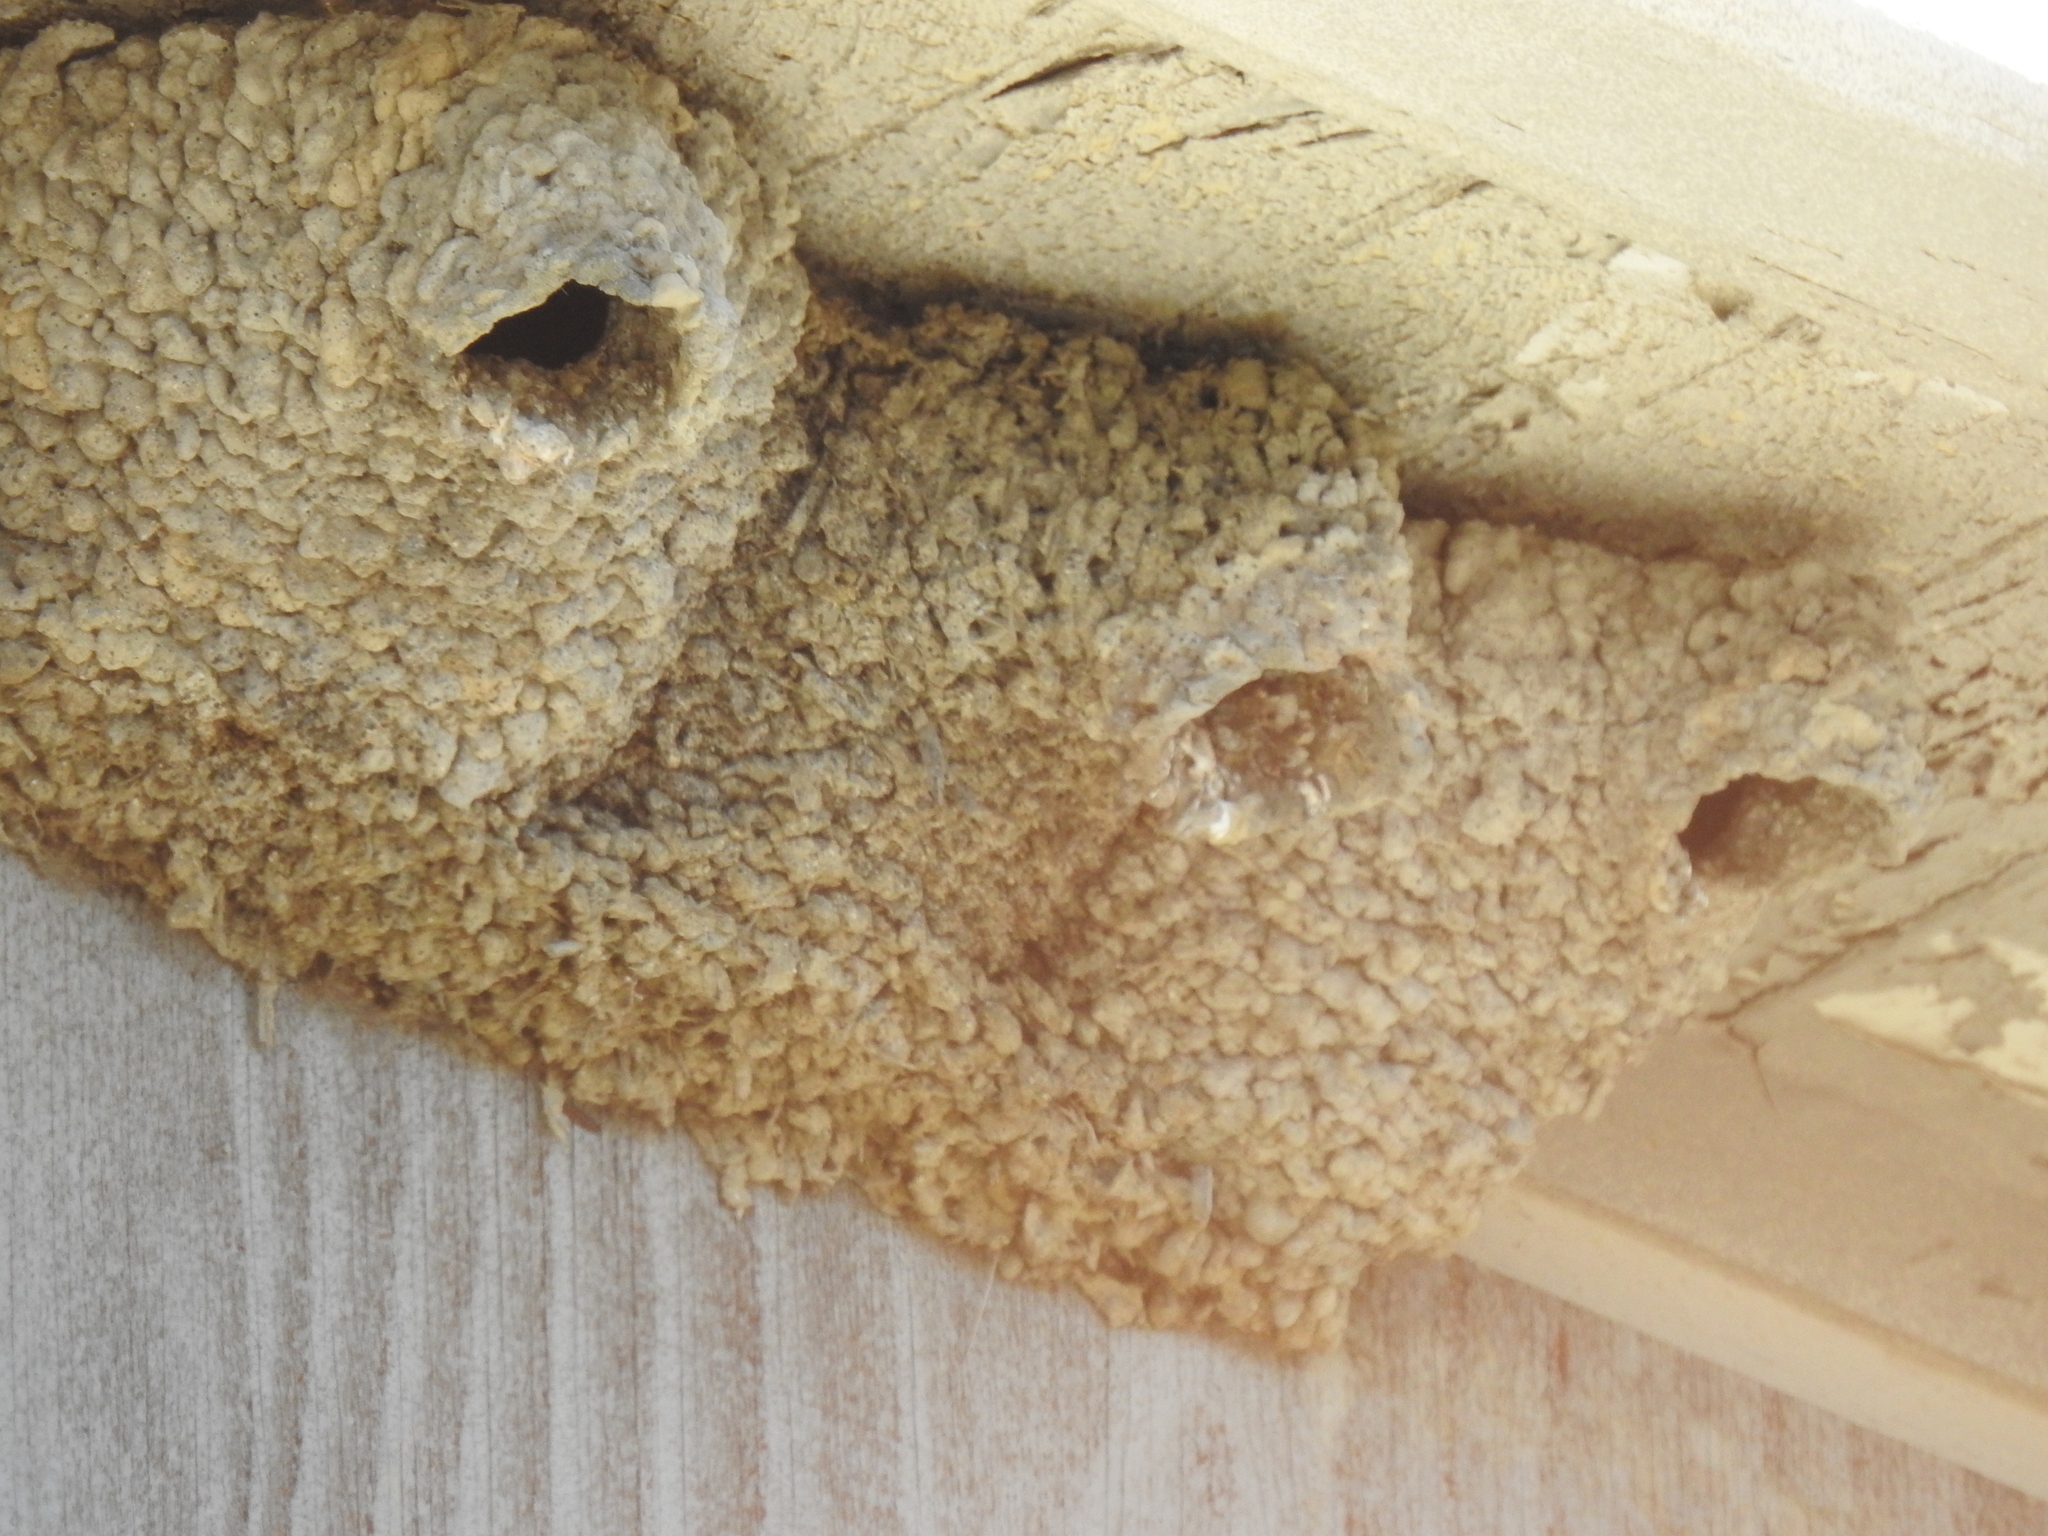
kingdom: Animalia
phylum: Chordata
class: Aves
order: Passeriformes
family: Hirundinidae
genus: Petrochelidon
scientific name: Petrochelidon pyrrhonota
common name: American cliff swallow
